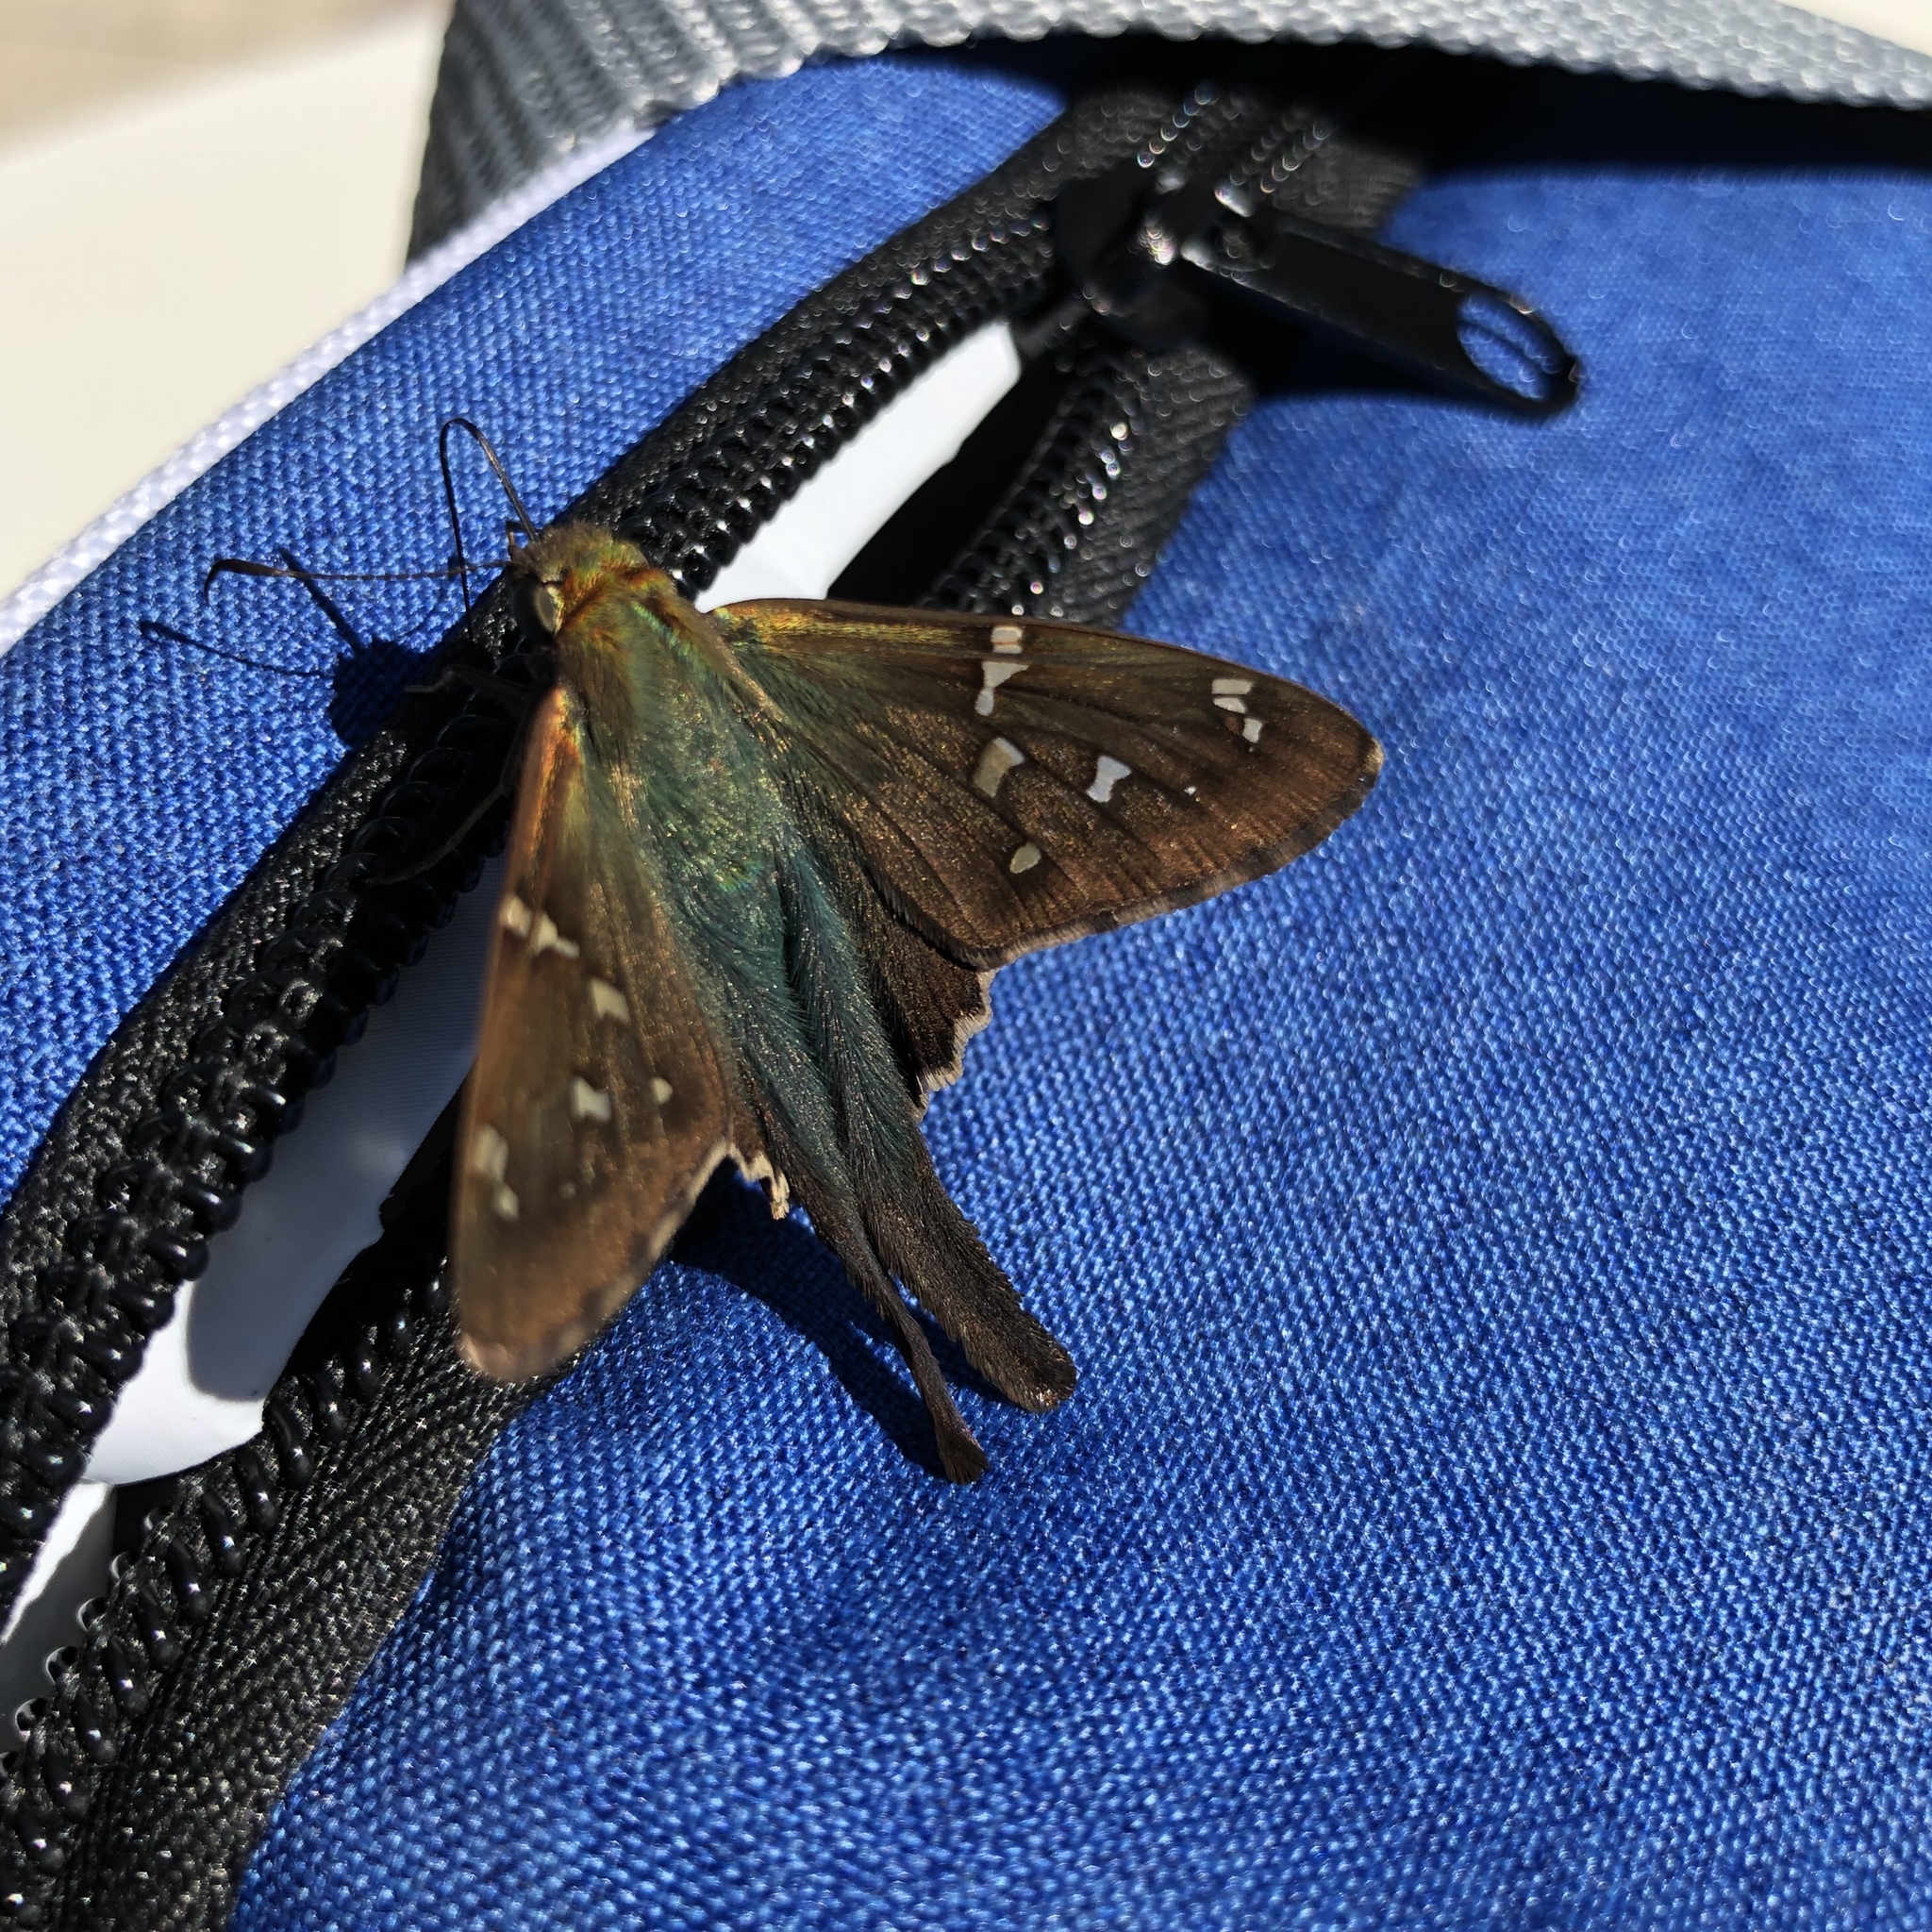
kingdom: Animalia
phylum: Arthropoda
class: Insecta
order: Lepidoptera
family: Hesperiidae
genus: Urbanus
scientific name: Urbanus proteus
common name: Long-tailed skipper
